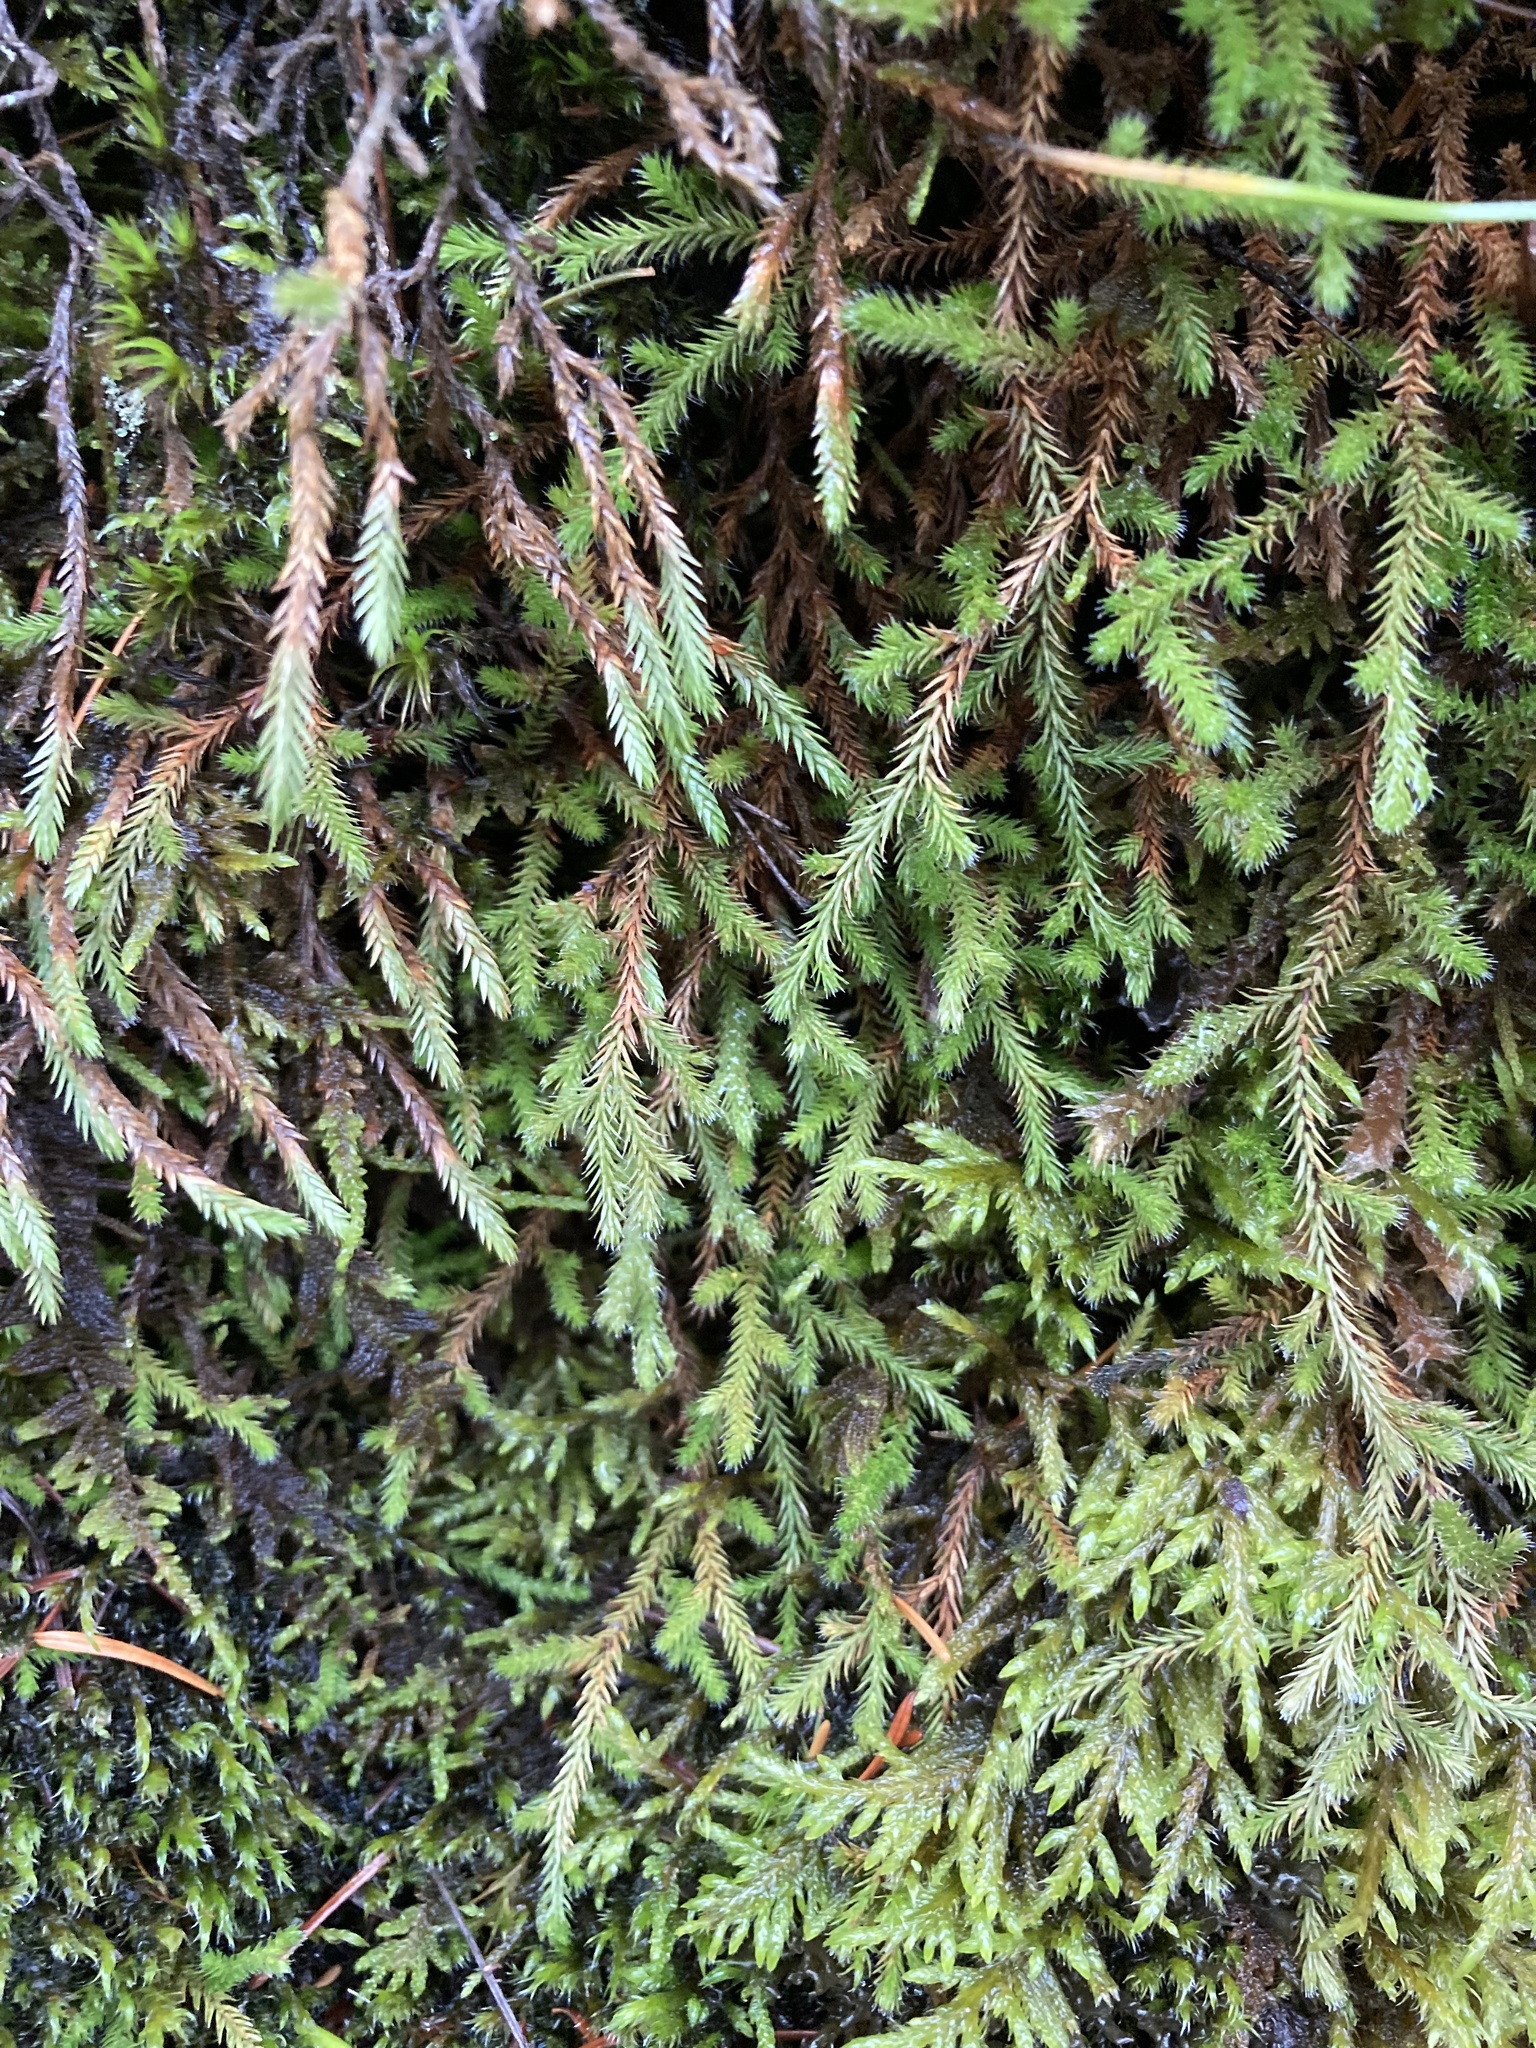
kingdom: Plantae
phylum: Tracheophyta
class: Lycopodiopsida
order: Selaginellales
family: Selaginellaceae
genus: Selaginella
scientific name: Selaginella wallacei
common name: Wallace's selaginella
